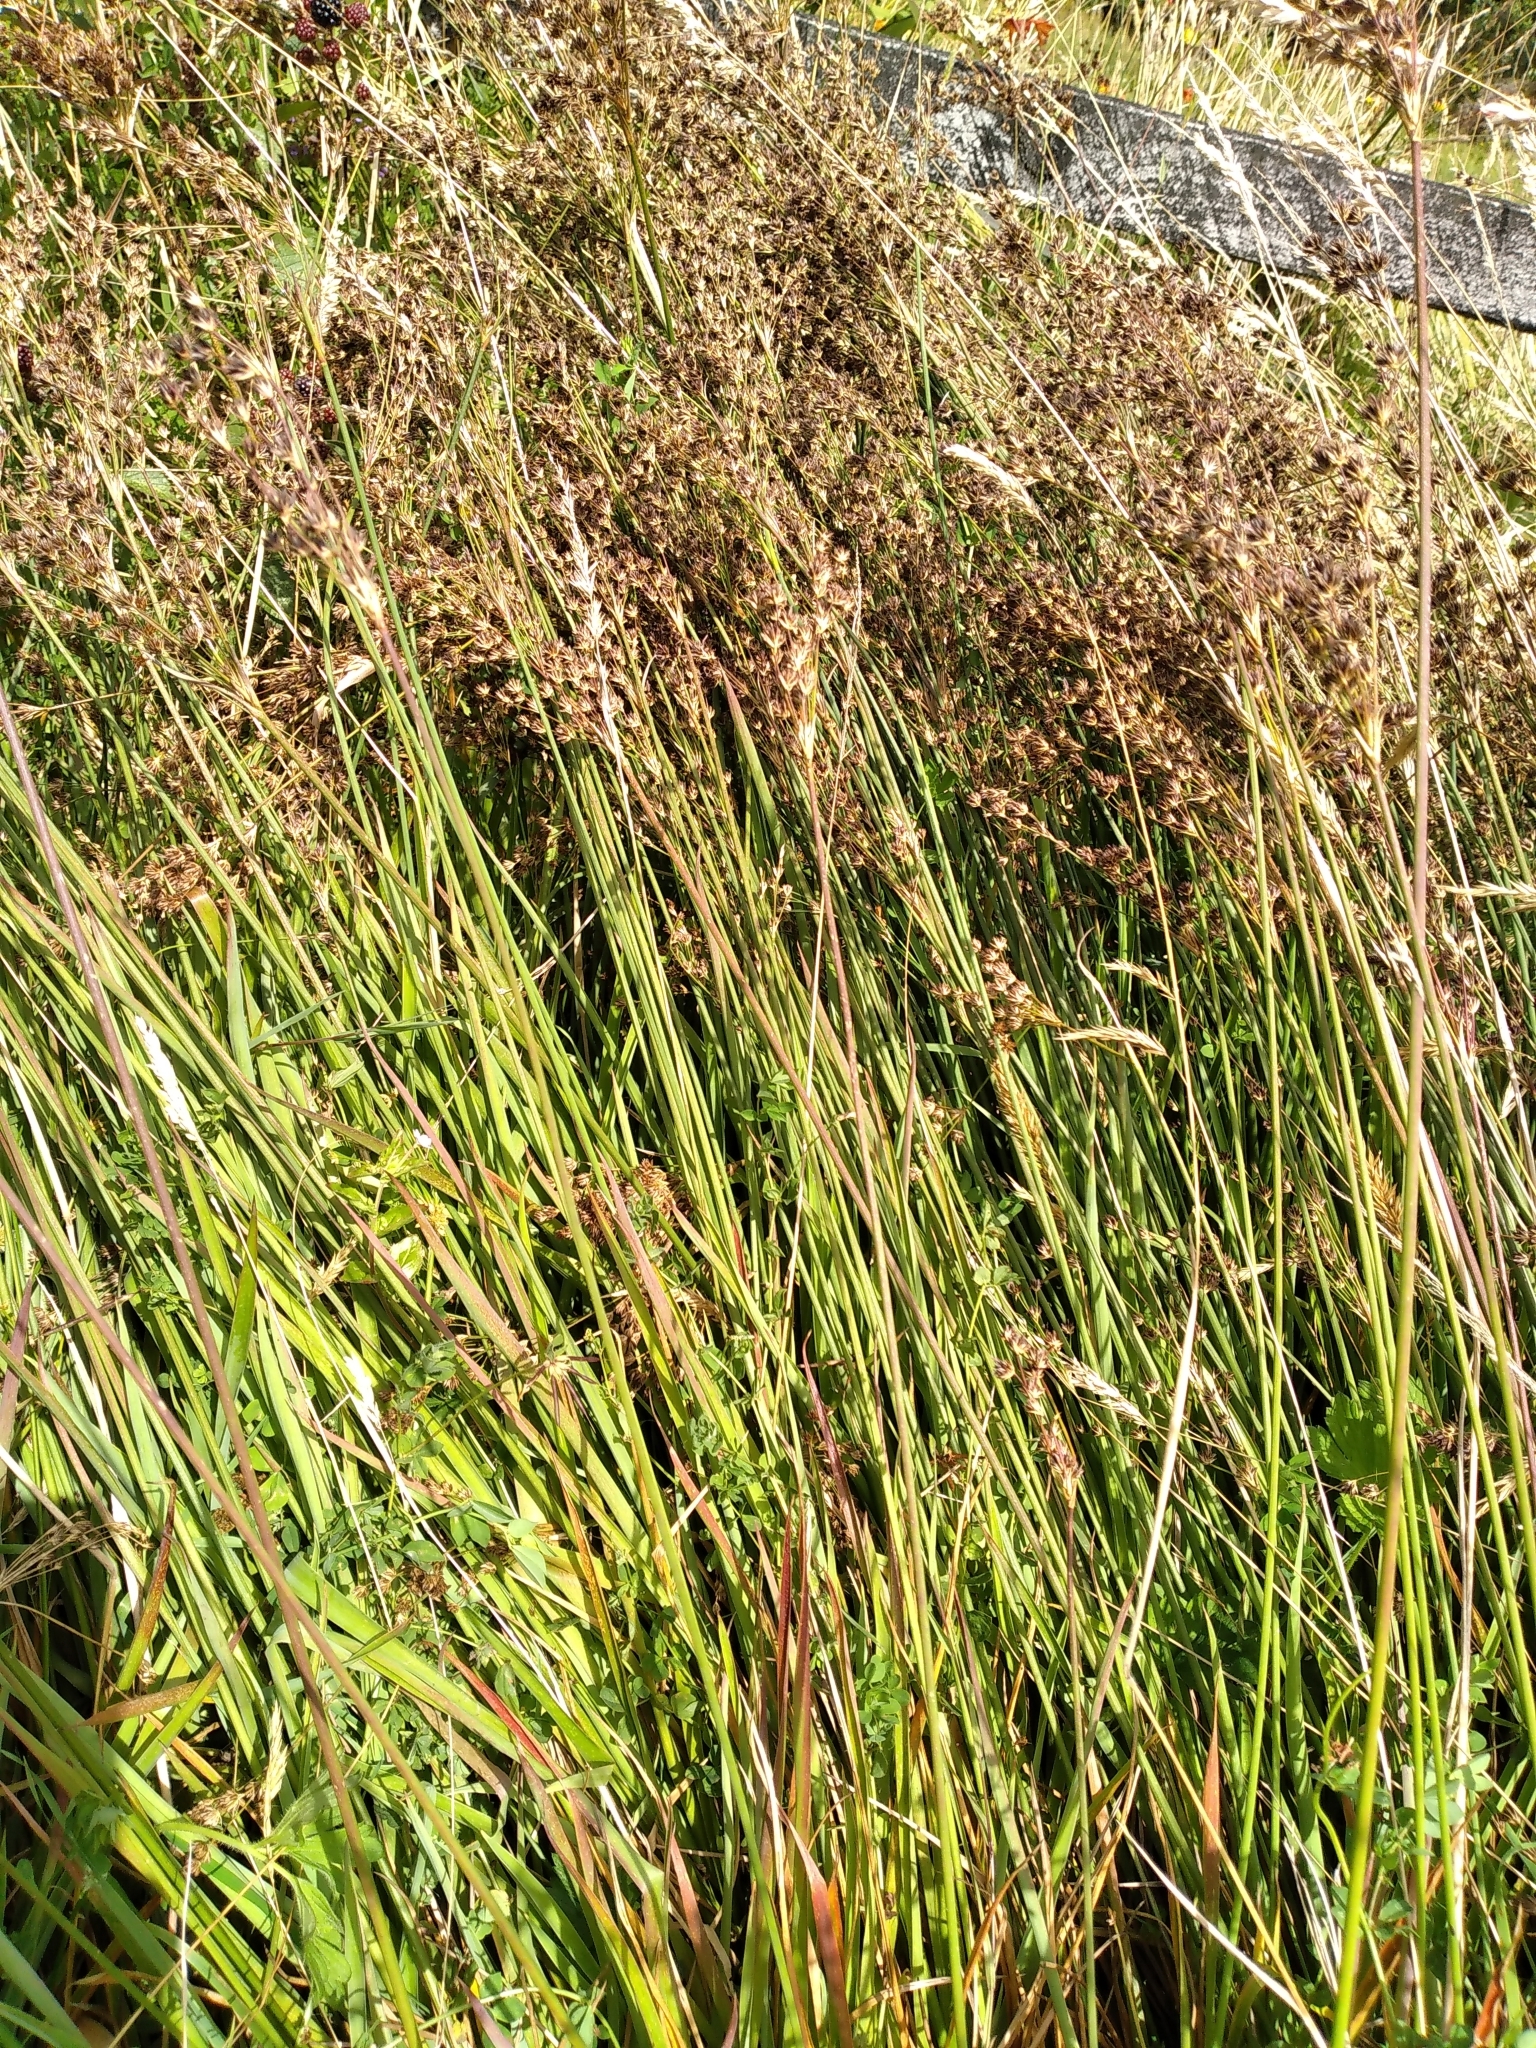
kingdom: Plantae
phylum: Tracheophyta
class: Liliopsida
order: Poales
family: Juncaceae
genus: Juncus
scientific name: Juncus lomatophyllus
